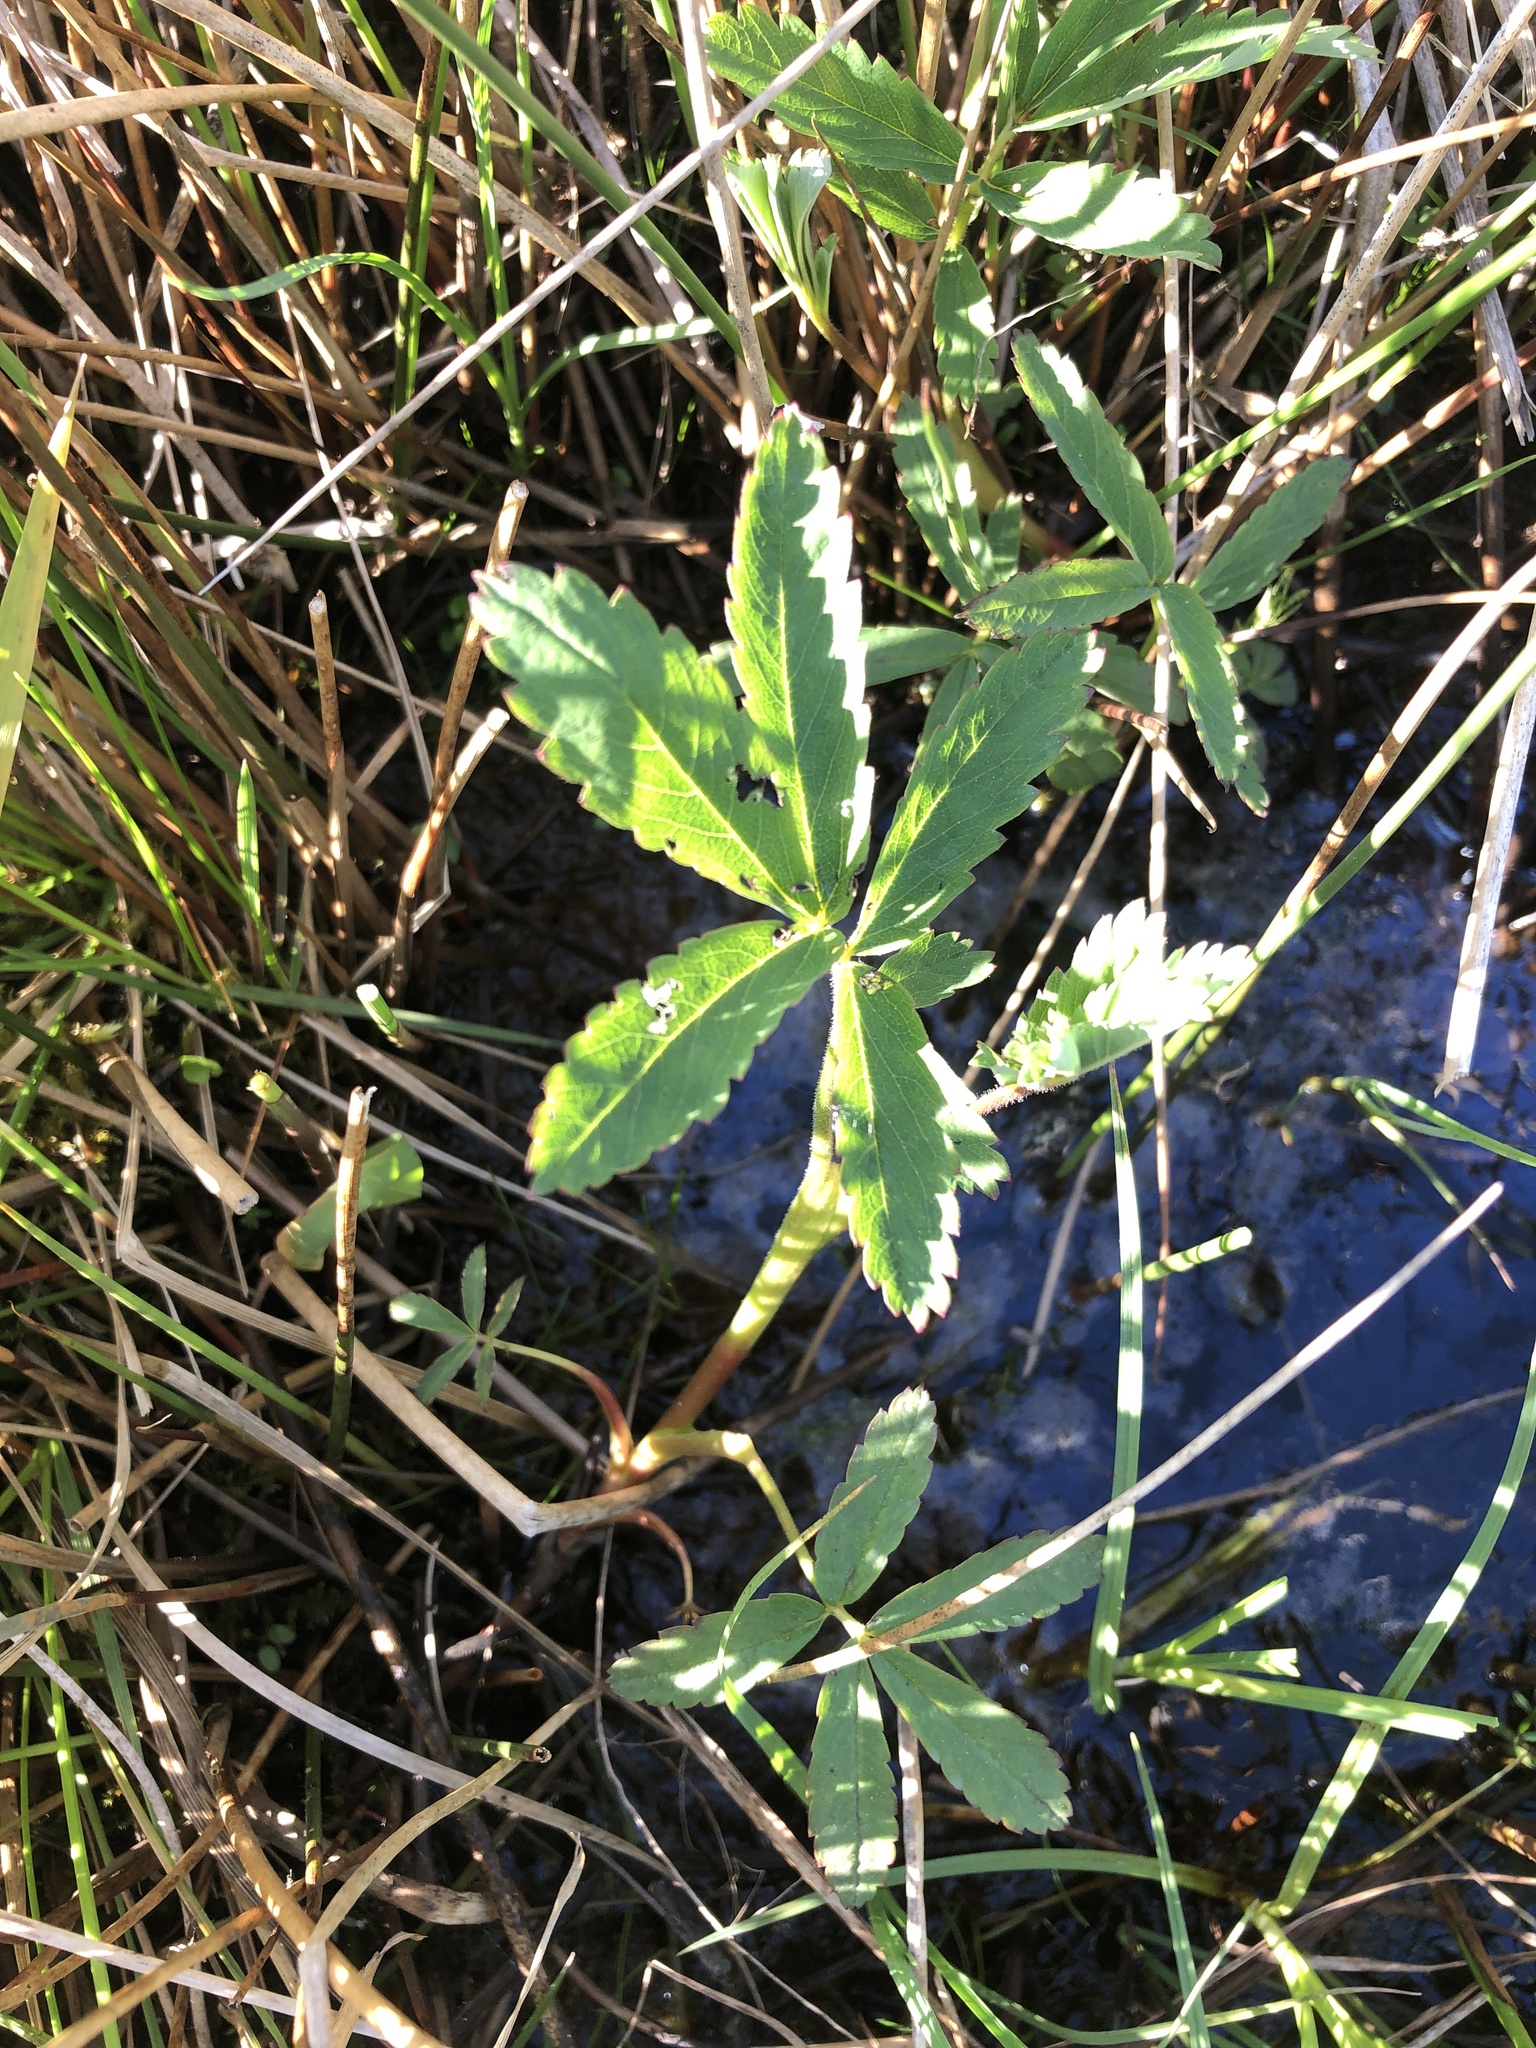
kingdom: Plantae
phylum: Tracheophyta
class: Magnoliopsida
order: Rosales
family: Rosaceae
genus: Comarum
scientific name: Comarum palustre
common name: Marsh cinquefoil
